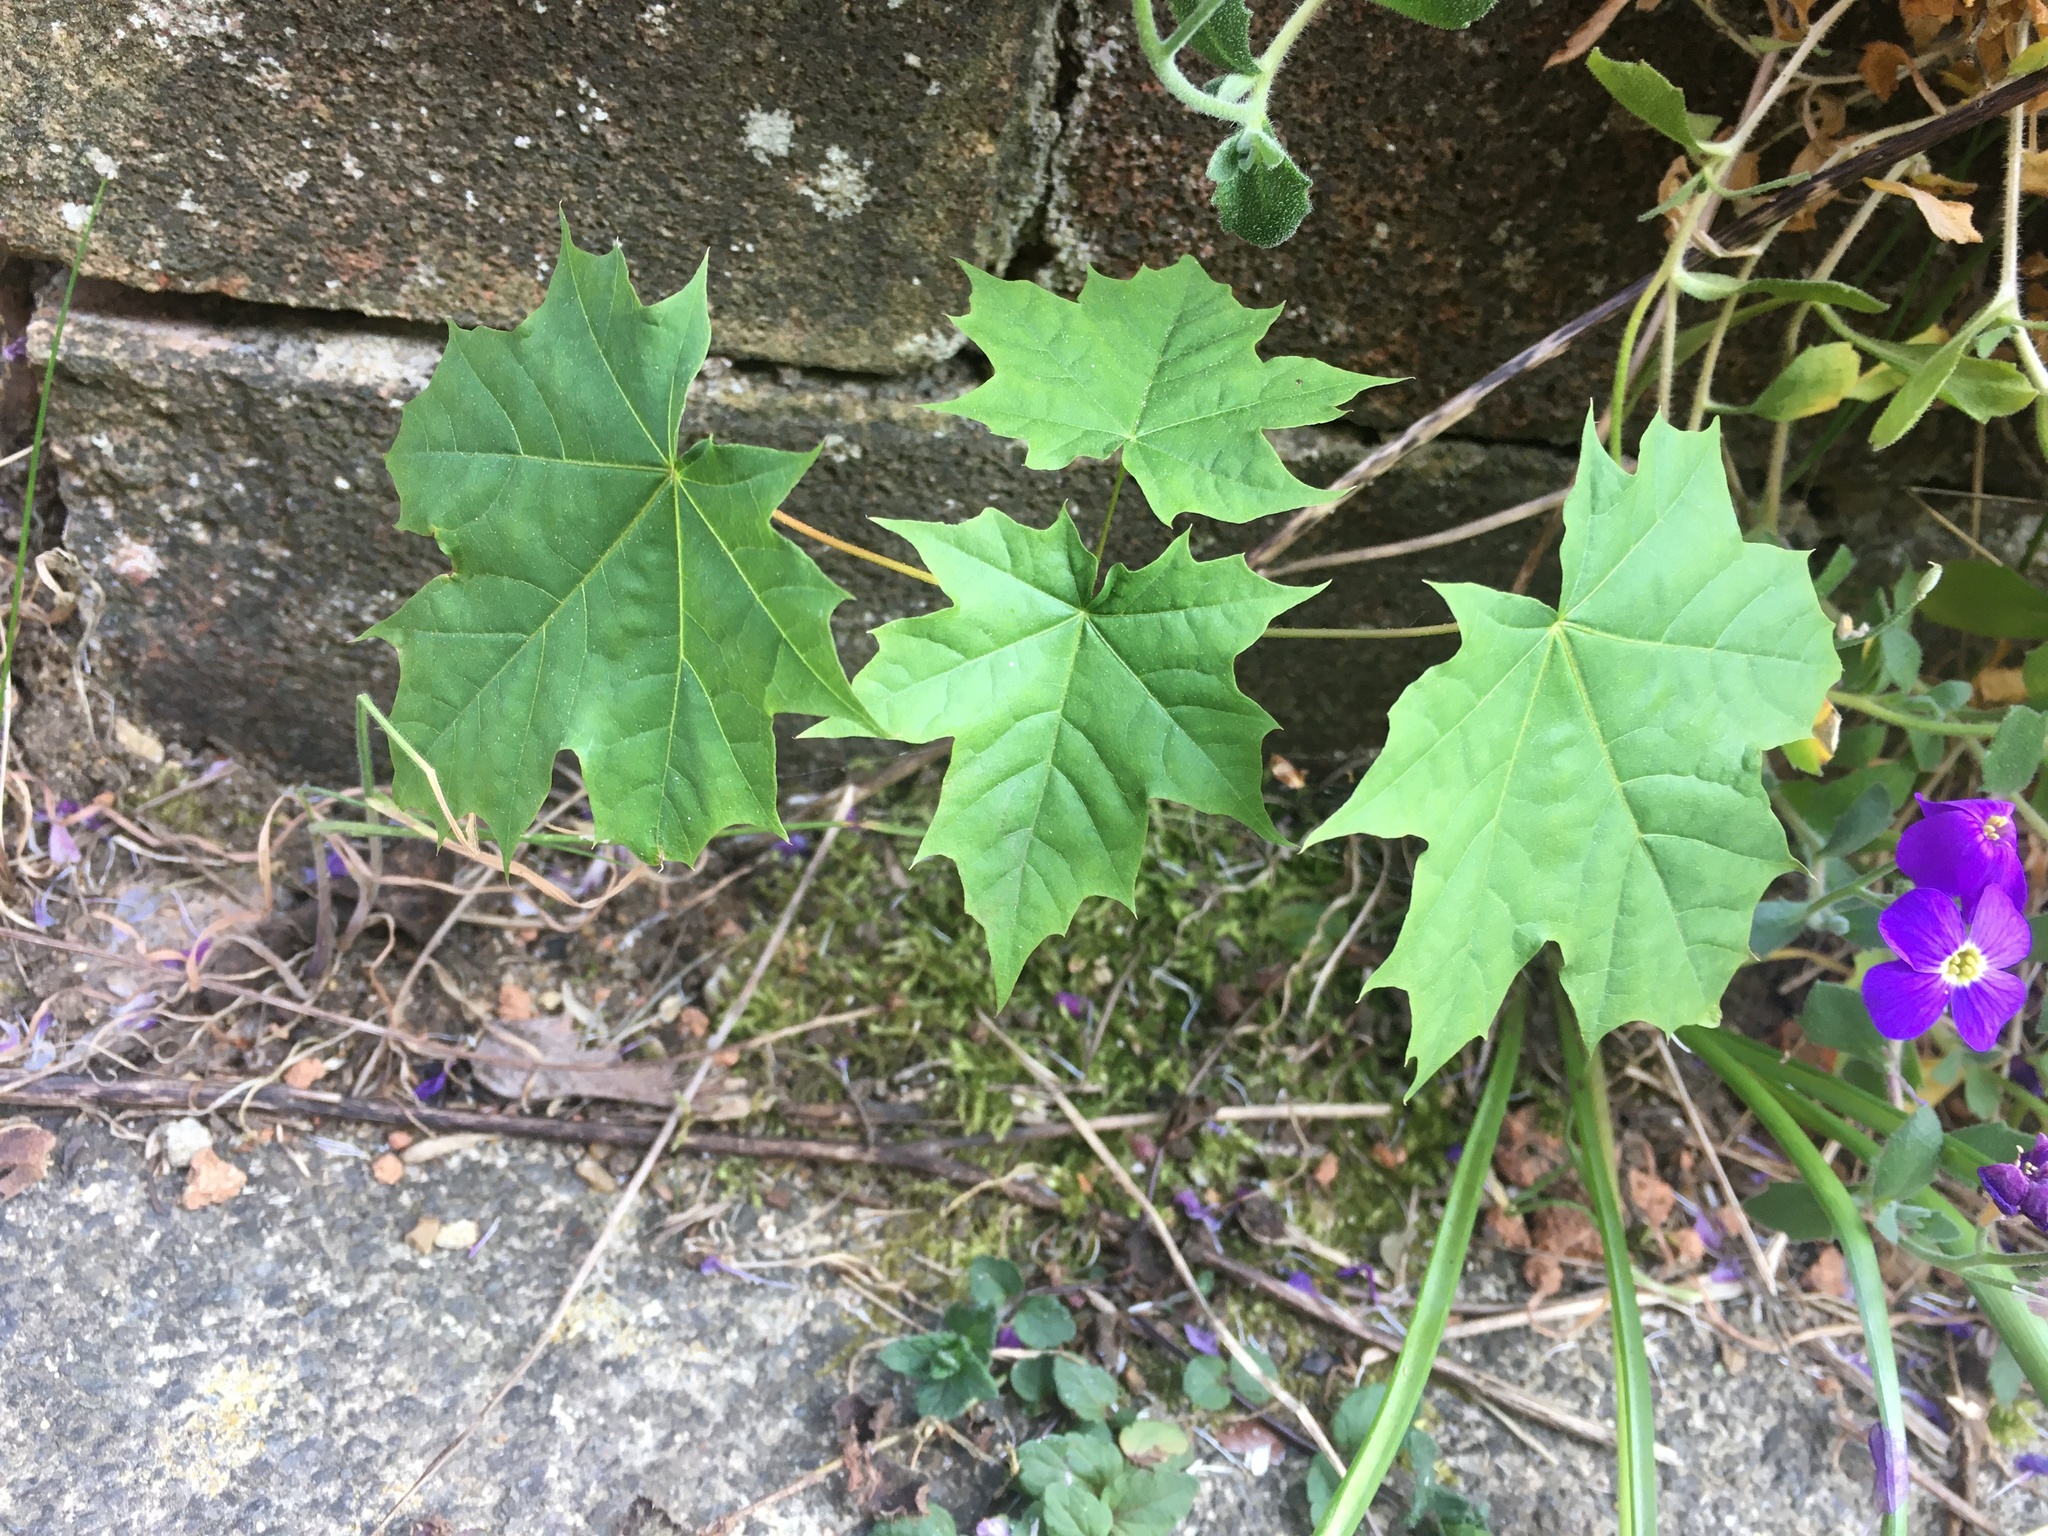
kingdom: Plantae
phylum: Tracheophyta
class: Magnoliopsida
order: Sapindales
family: Sapindaceae
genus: Acer
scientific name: Acer platanoides
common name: Norway maple
